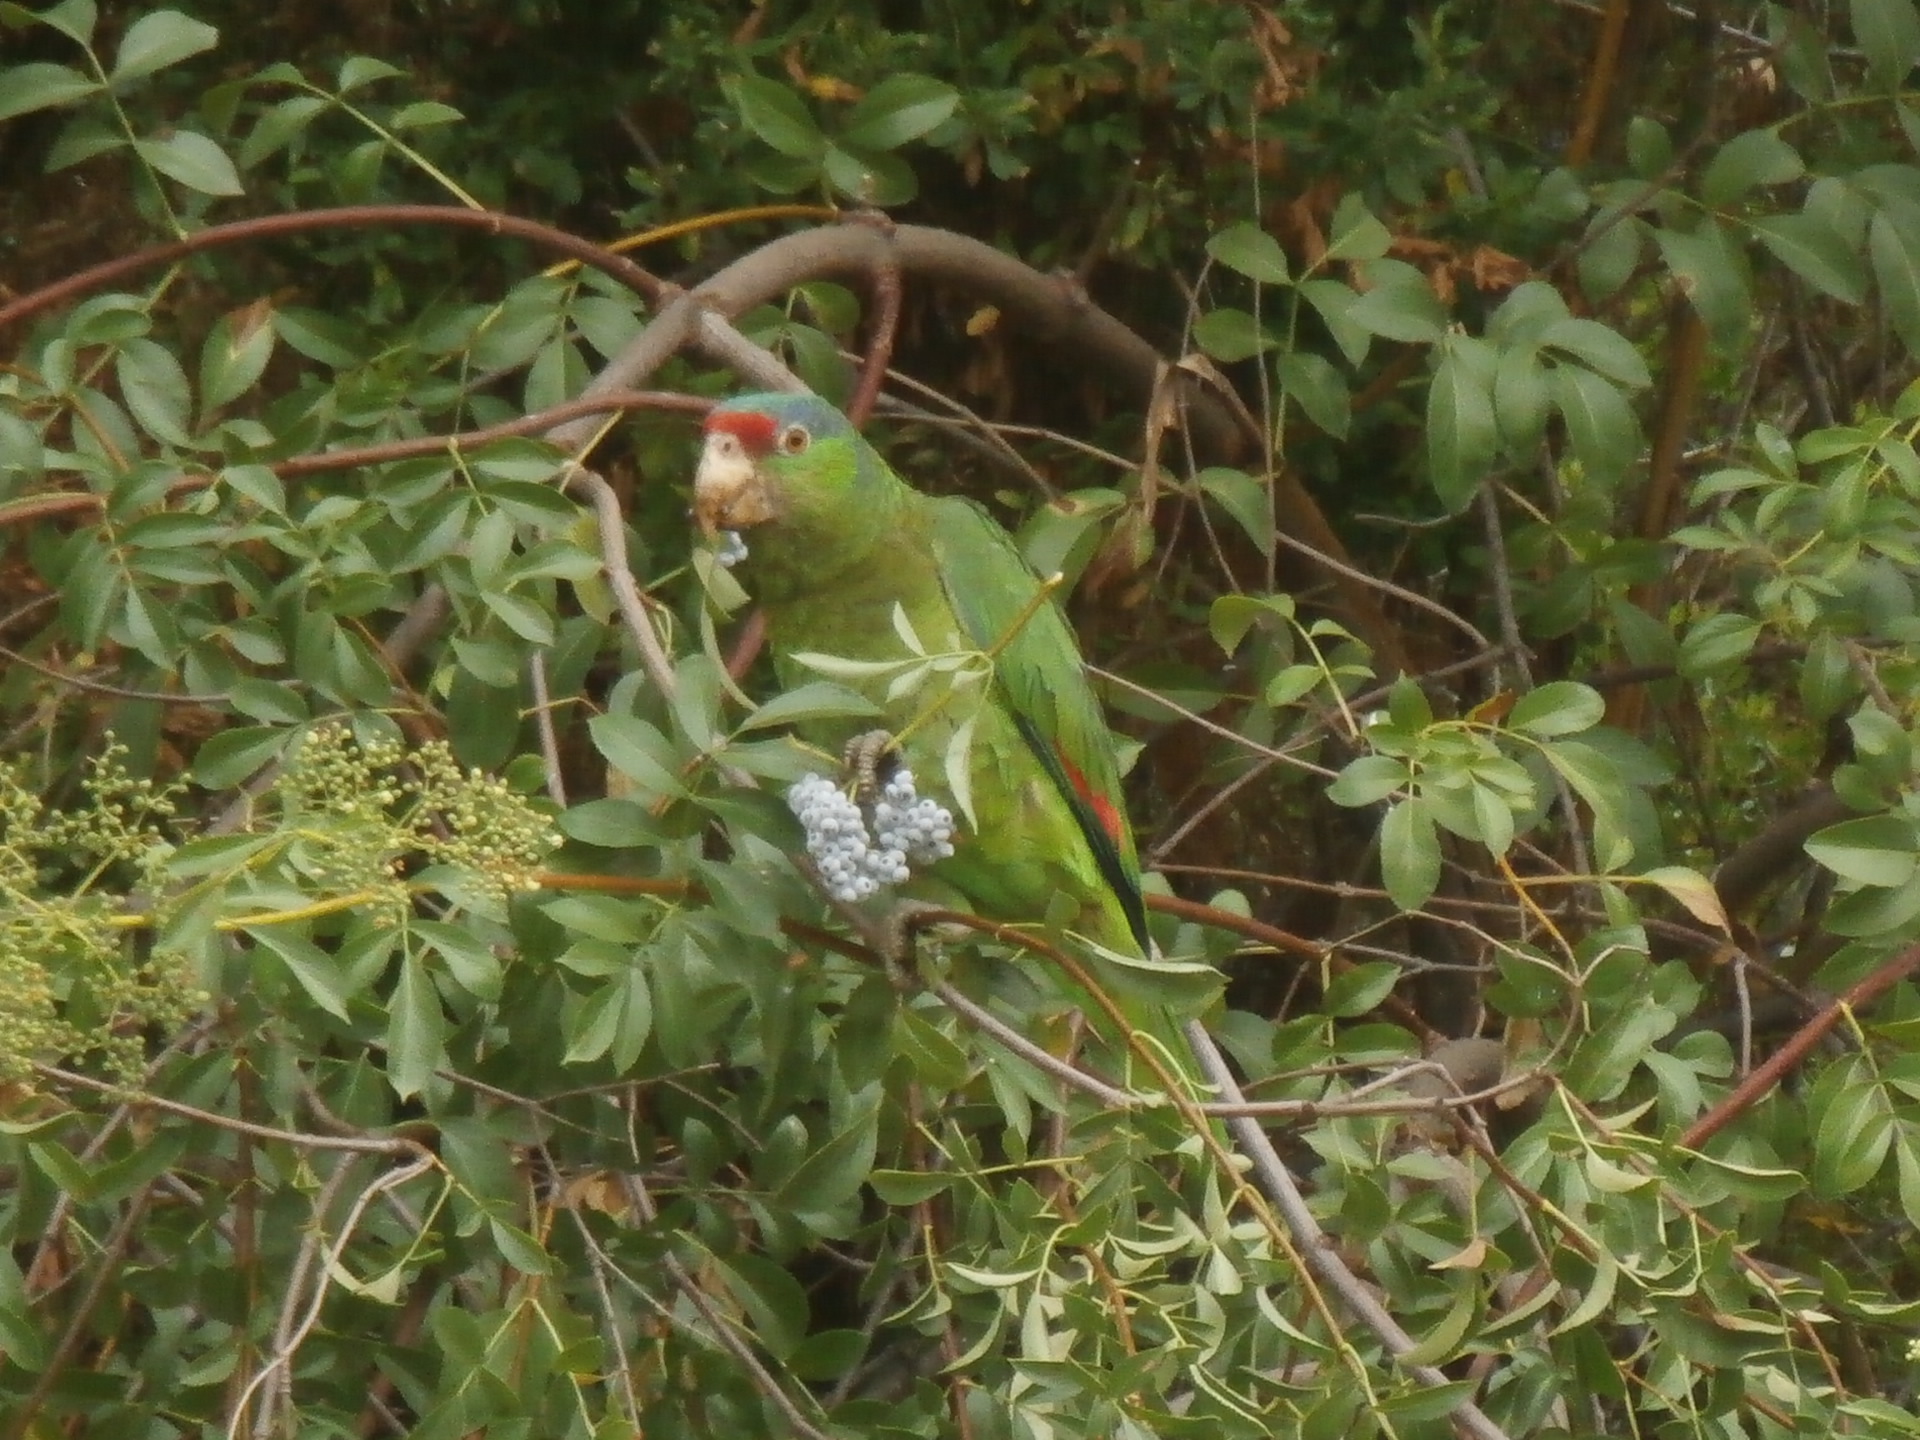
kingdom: Animalia
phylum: Chordata
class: Aves
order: Psittaciformes
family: Psittacidae
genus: Amazona
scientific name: Amazona viridigenalis
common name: Red-crowned amazon
